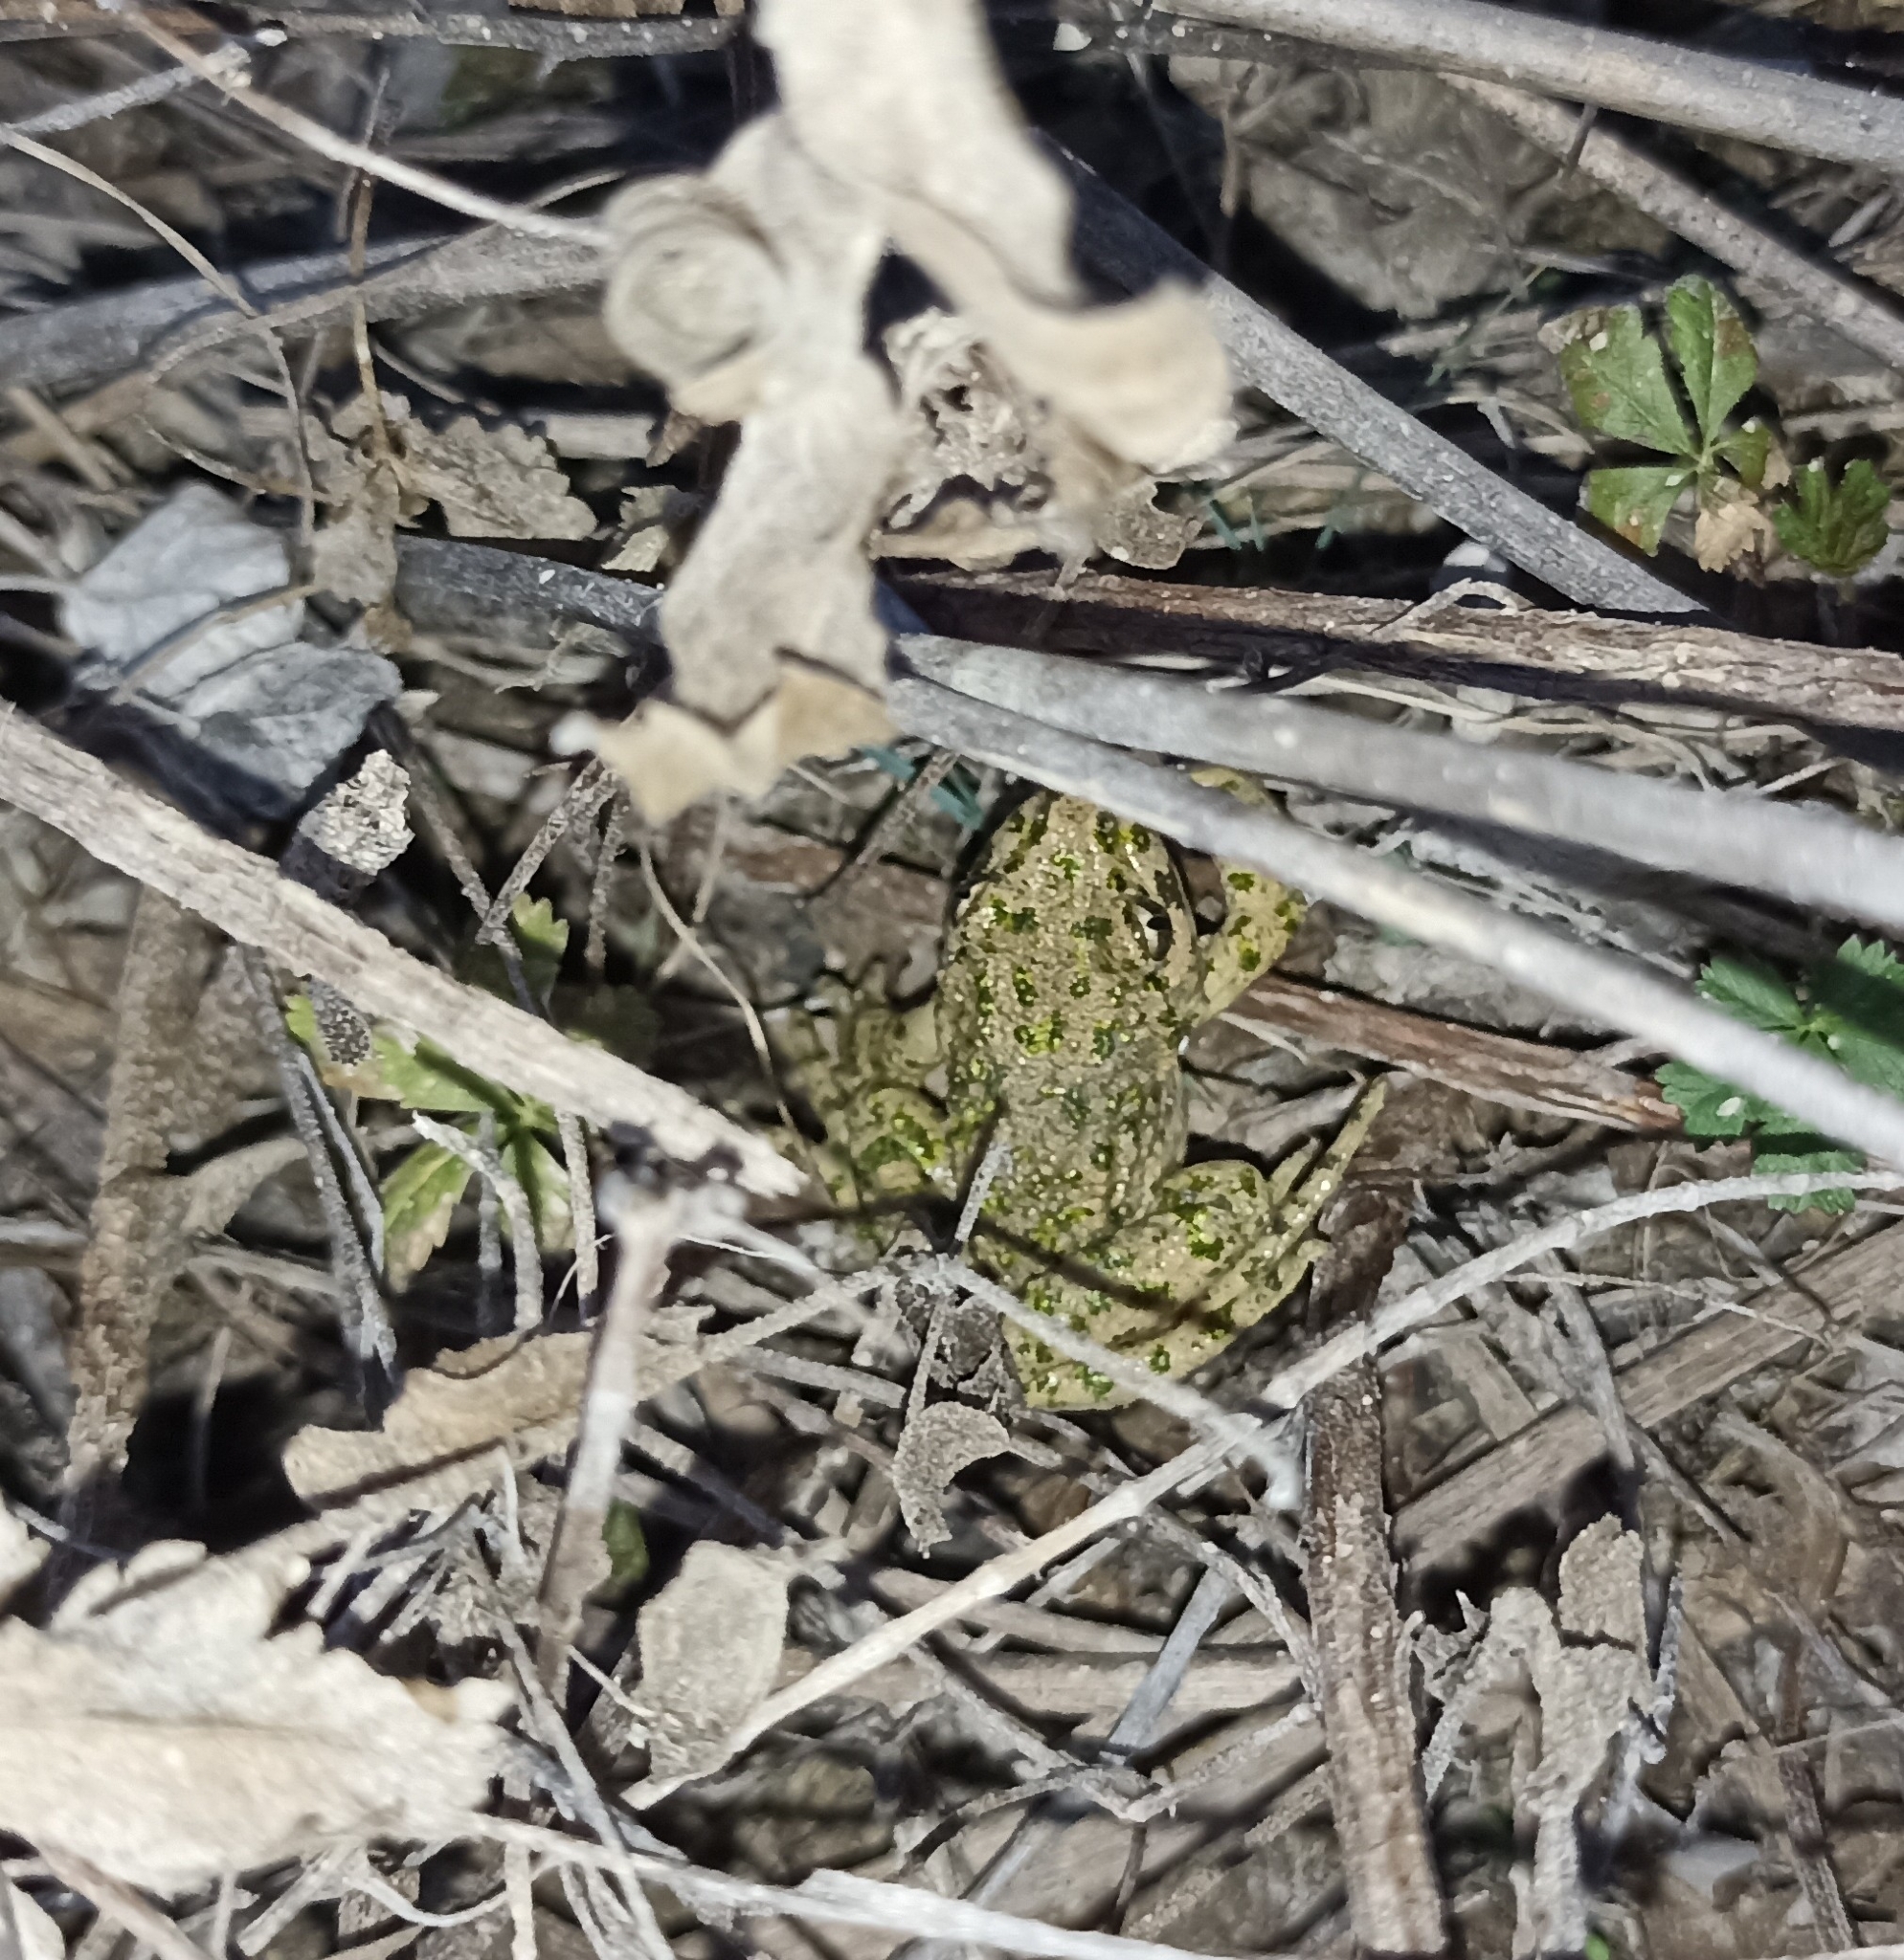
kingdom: Animalia
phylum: Chordata
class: Amphibia
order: Anura
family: Pelodytidae
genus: Pelodytes
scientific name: Pelodytes punctatus
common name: Parsley frog
